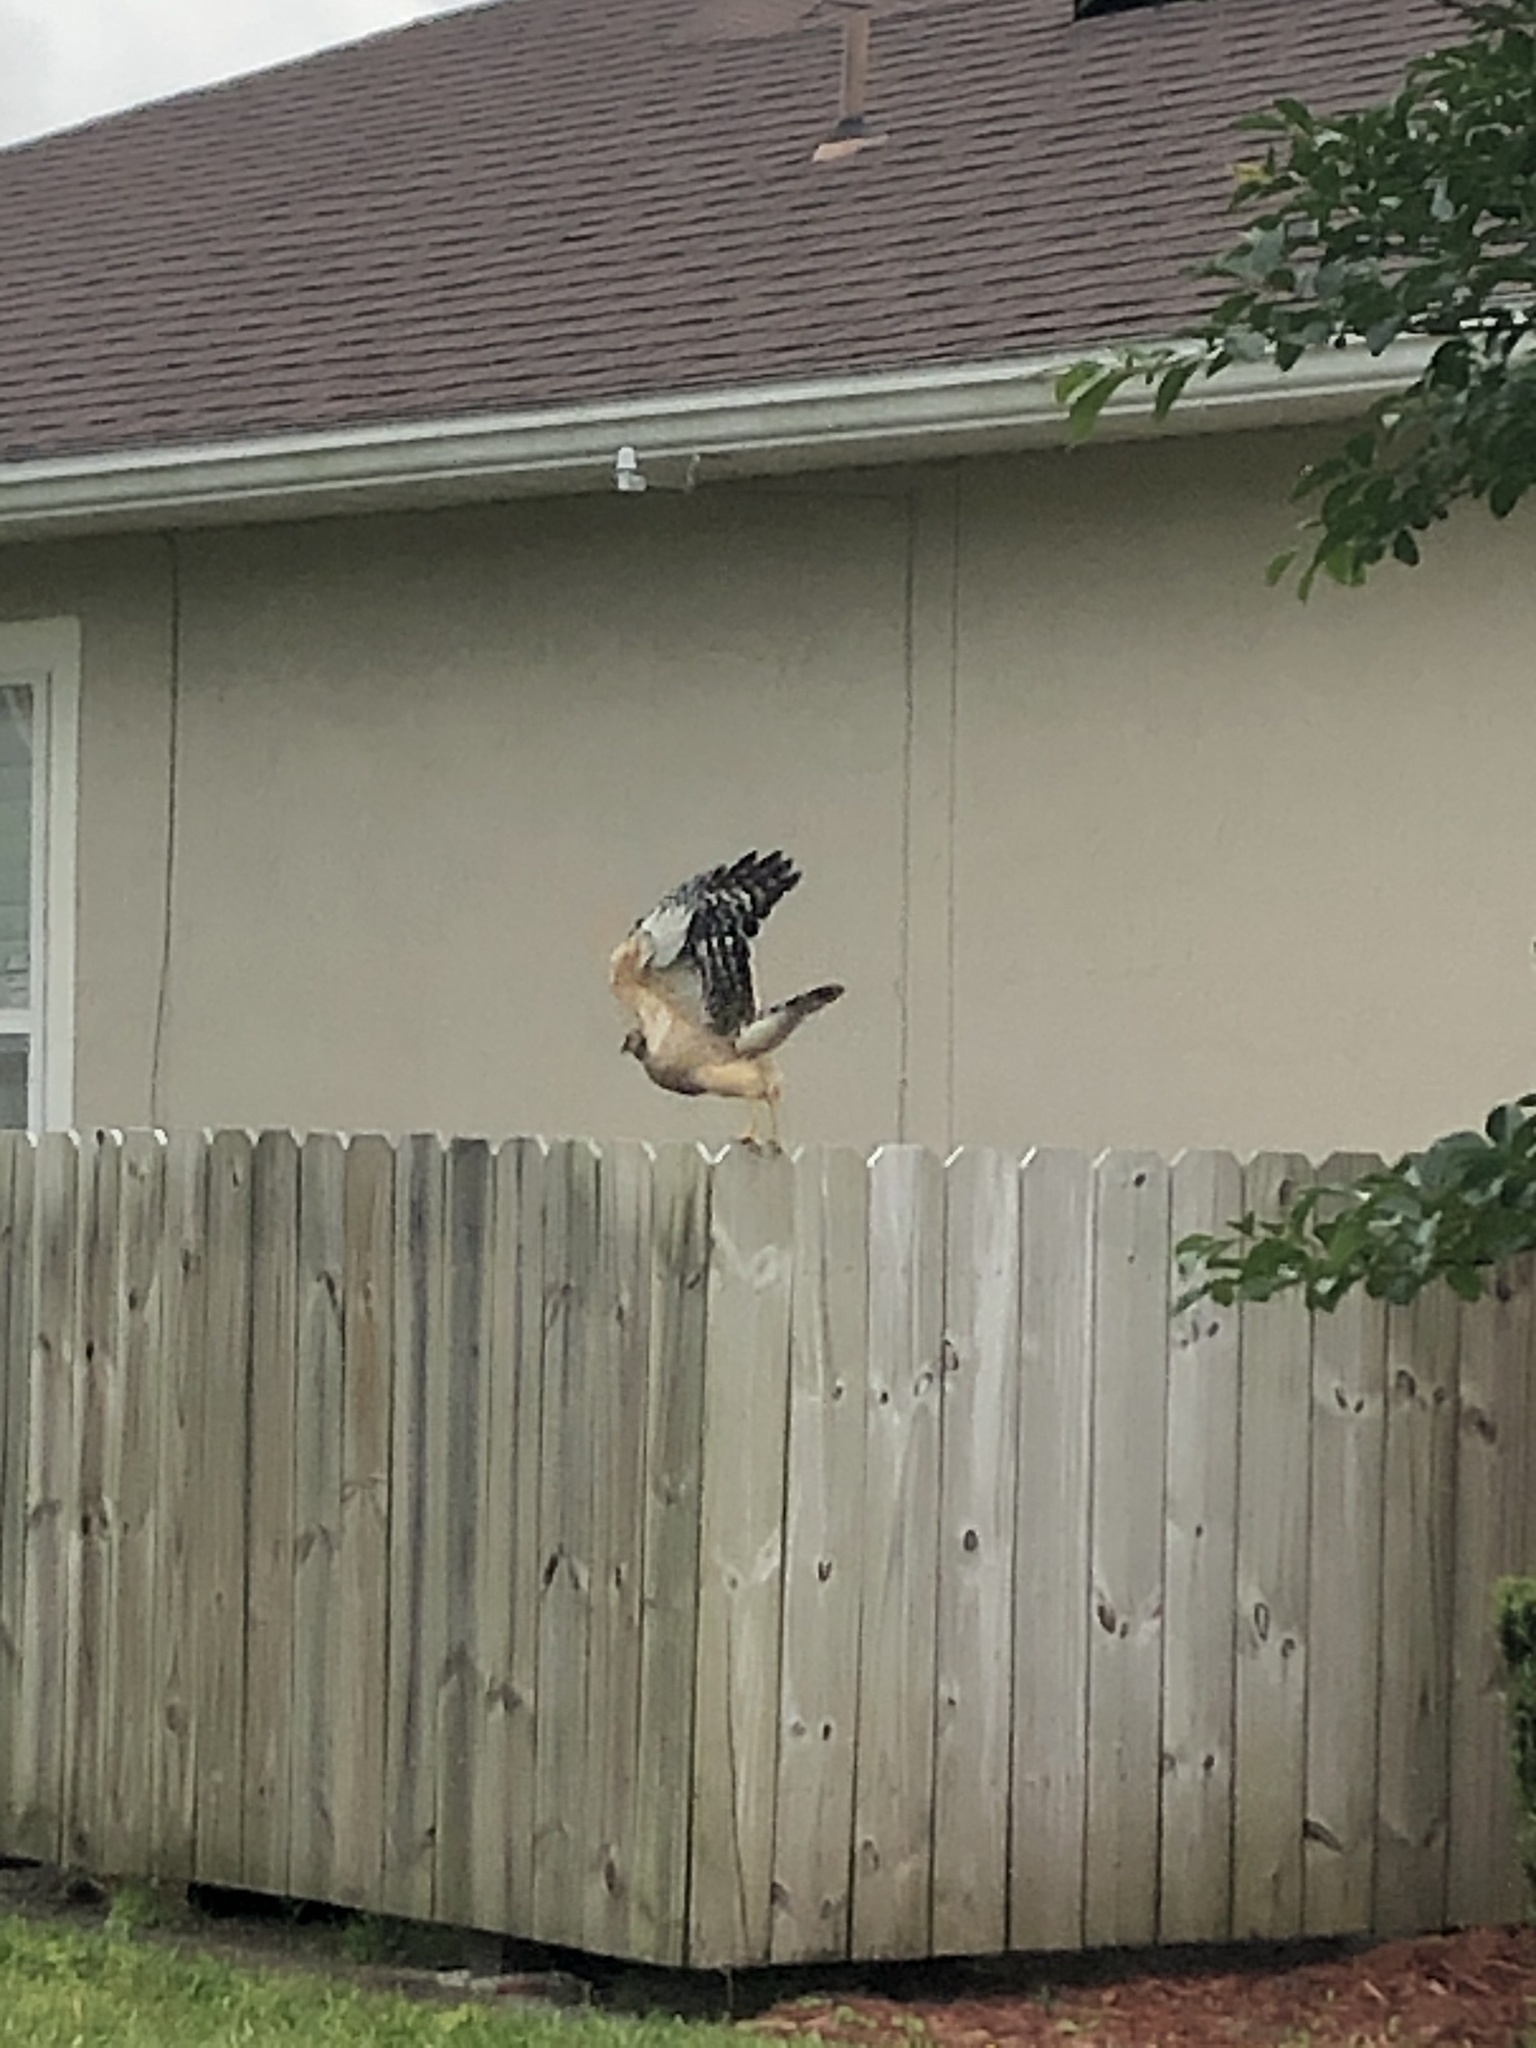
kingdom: Animalia
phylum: Chordata
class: Aves
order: Accipitriformes
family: Accipitridae
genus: Buteo
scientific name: Buteo lineatus
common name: Red-shouldered hawk
